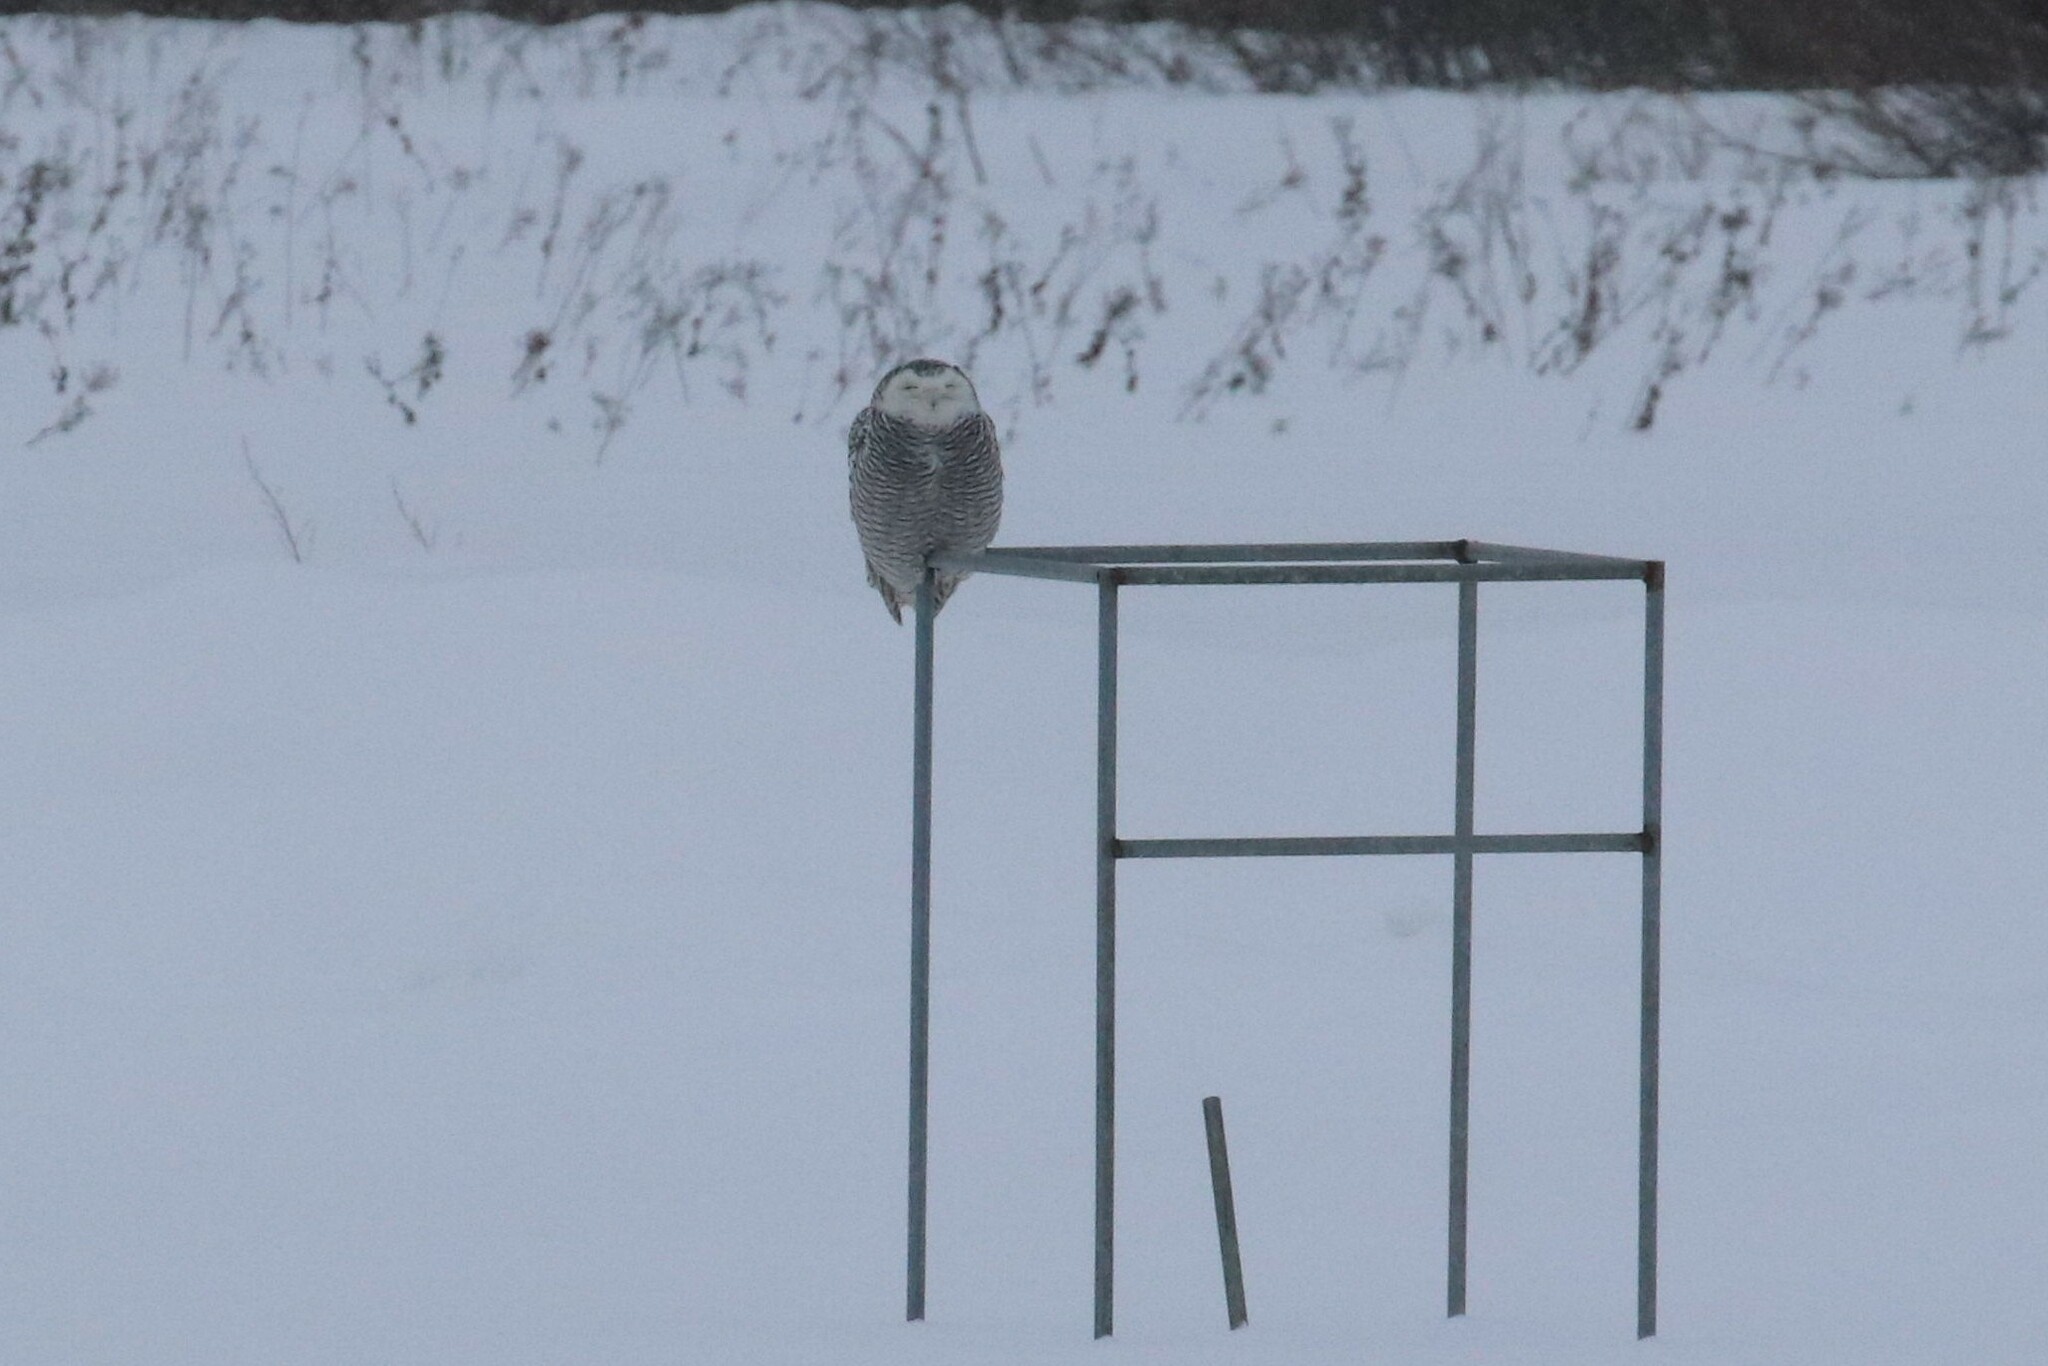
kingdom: Animalia
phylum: Chordata
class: Aves
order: Strigiformes
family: Strigidae
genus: Bubo
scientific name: Bubo scandiacus
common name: Snowy owl
